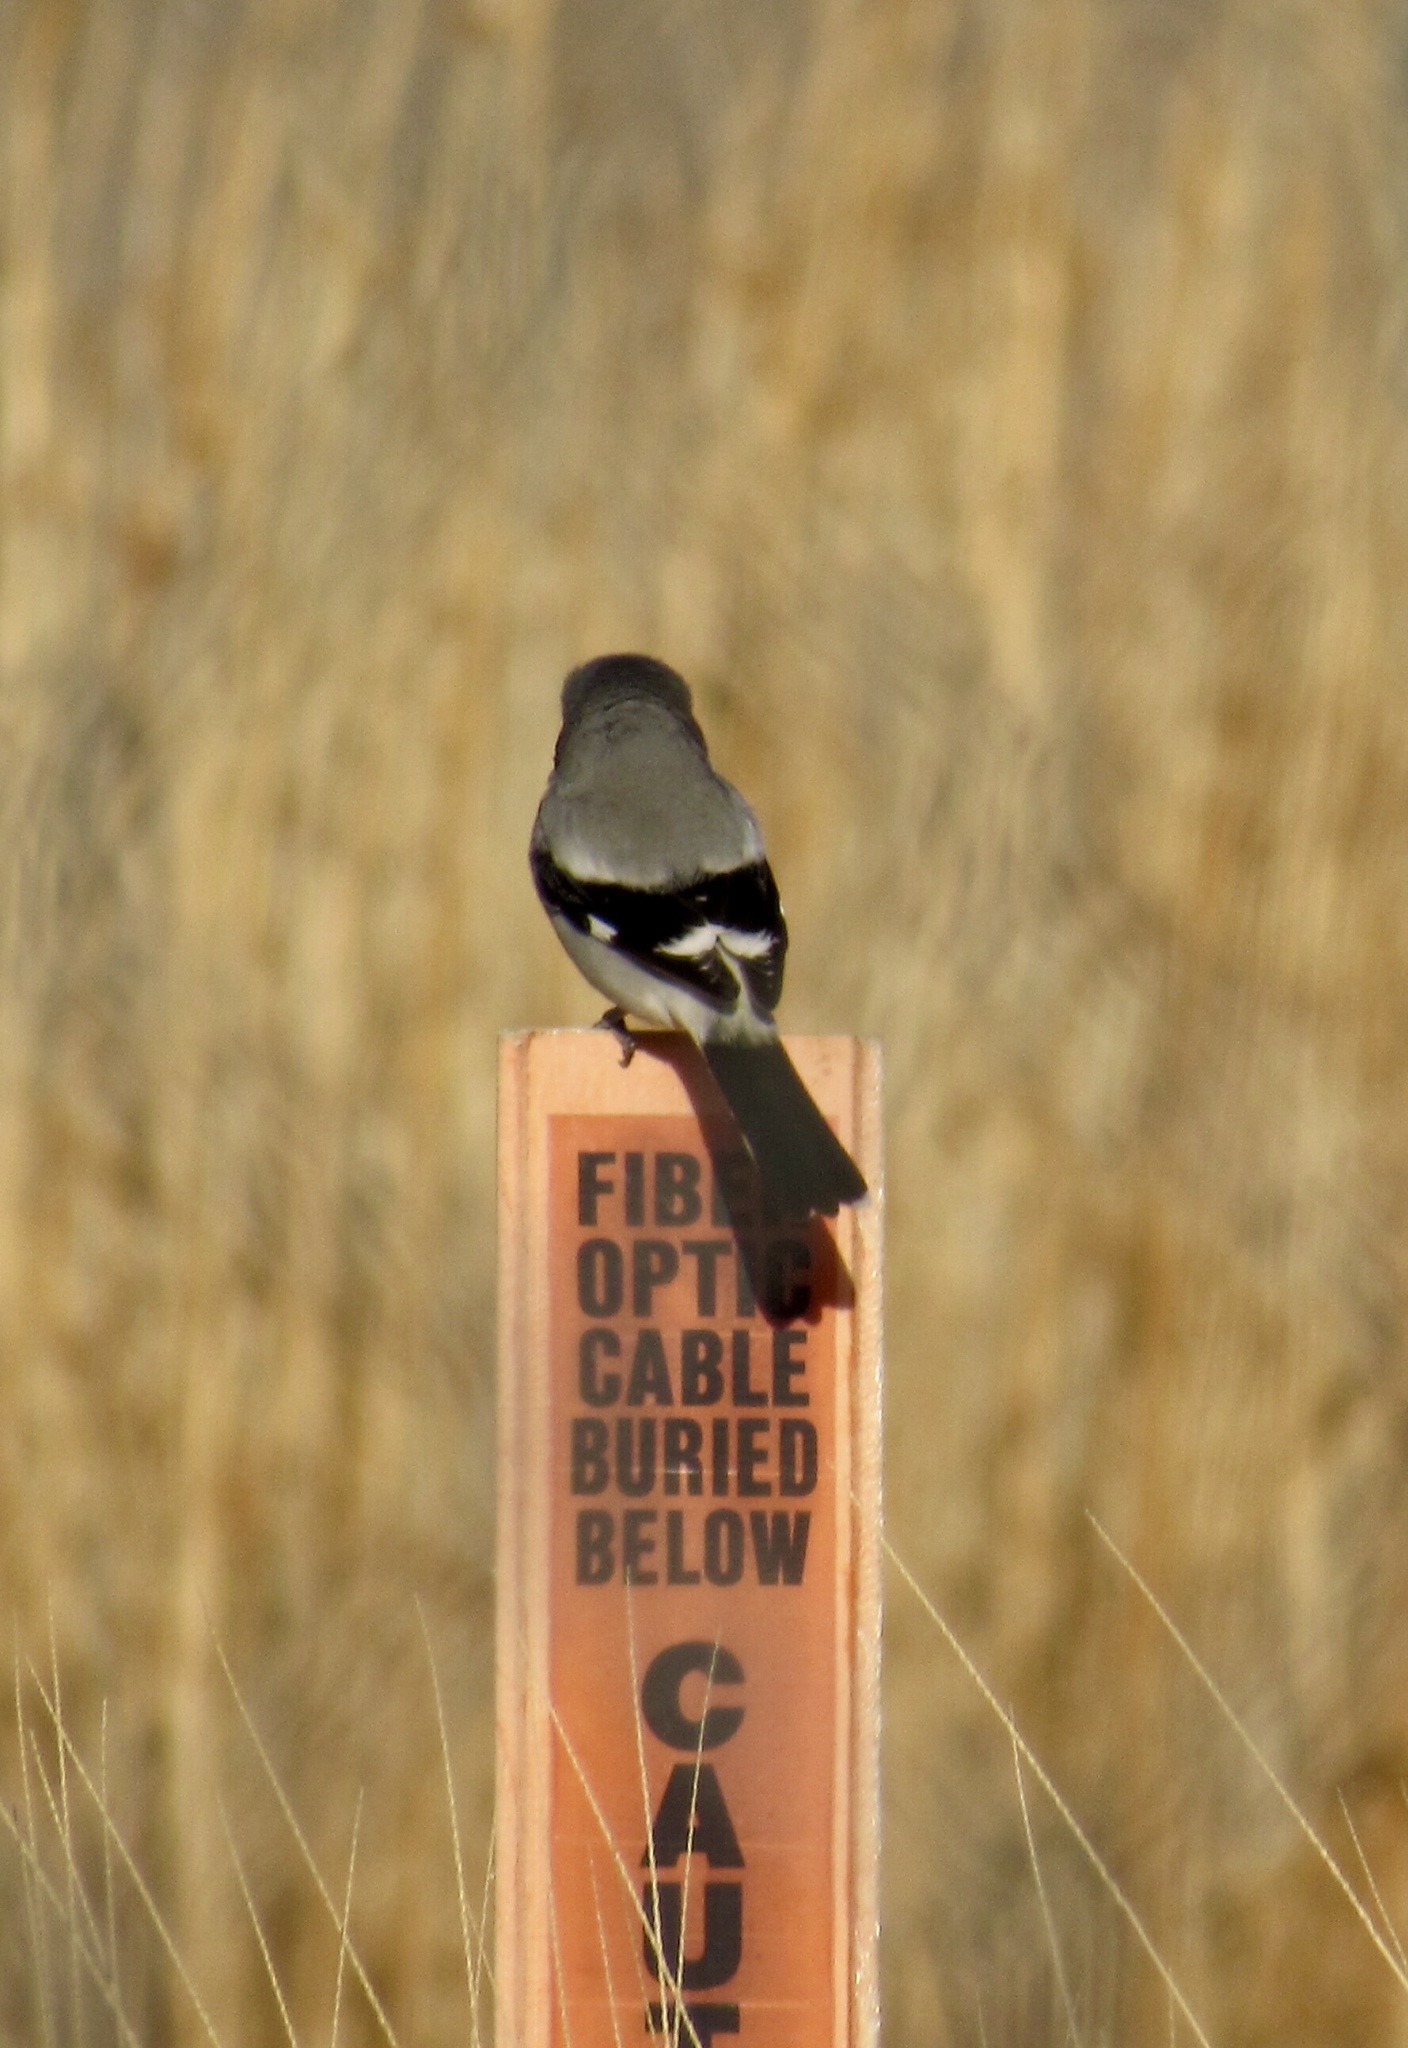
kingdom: Animalia
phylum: Chordata
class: Aves
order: Passeriformes
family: Laniidae
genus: Lanius
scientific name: Lanius ludovicianus
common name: Loggerhead shrike
